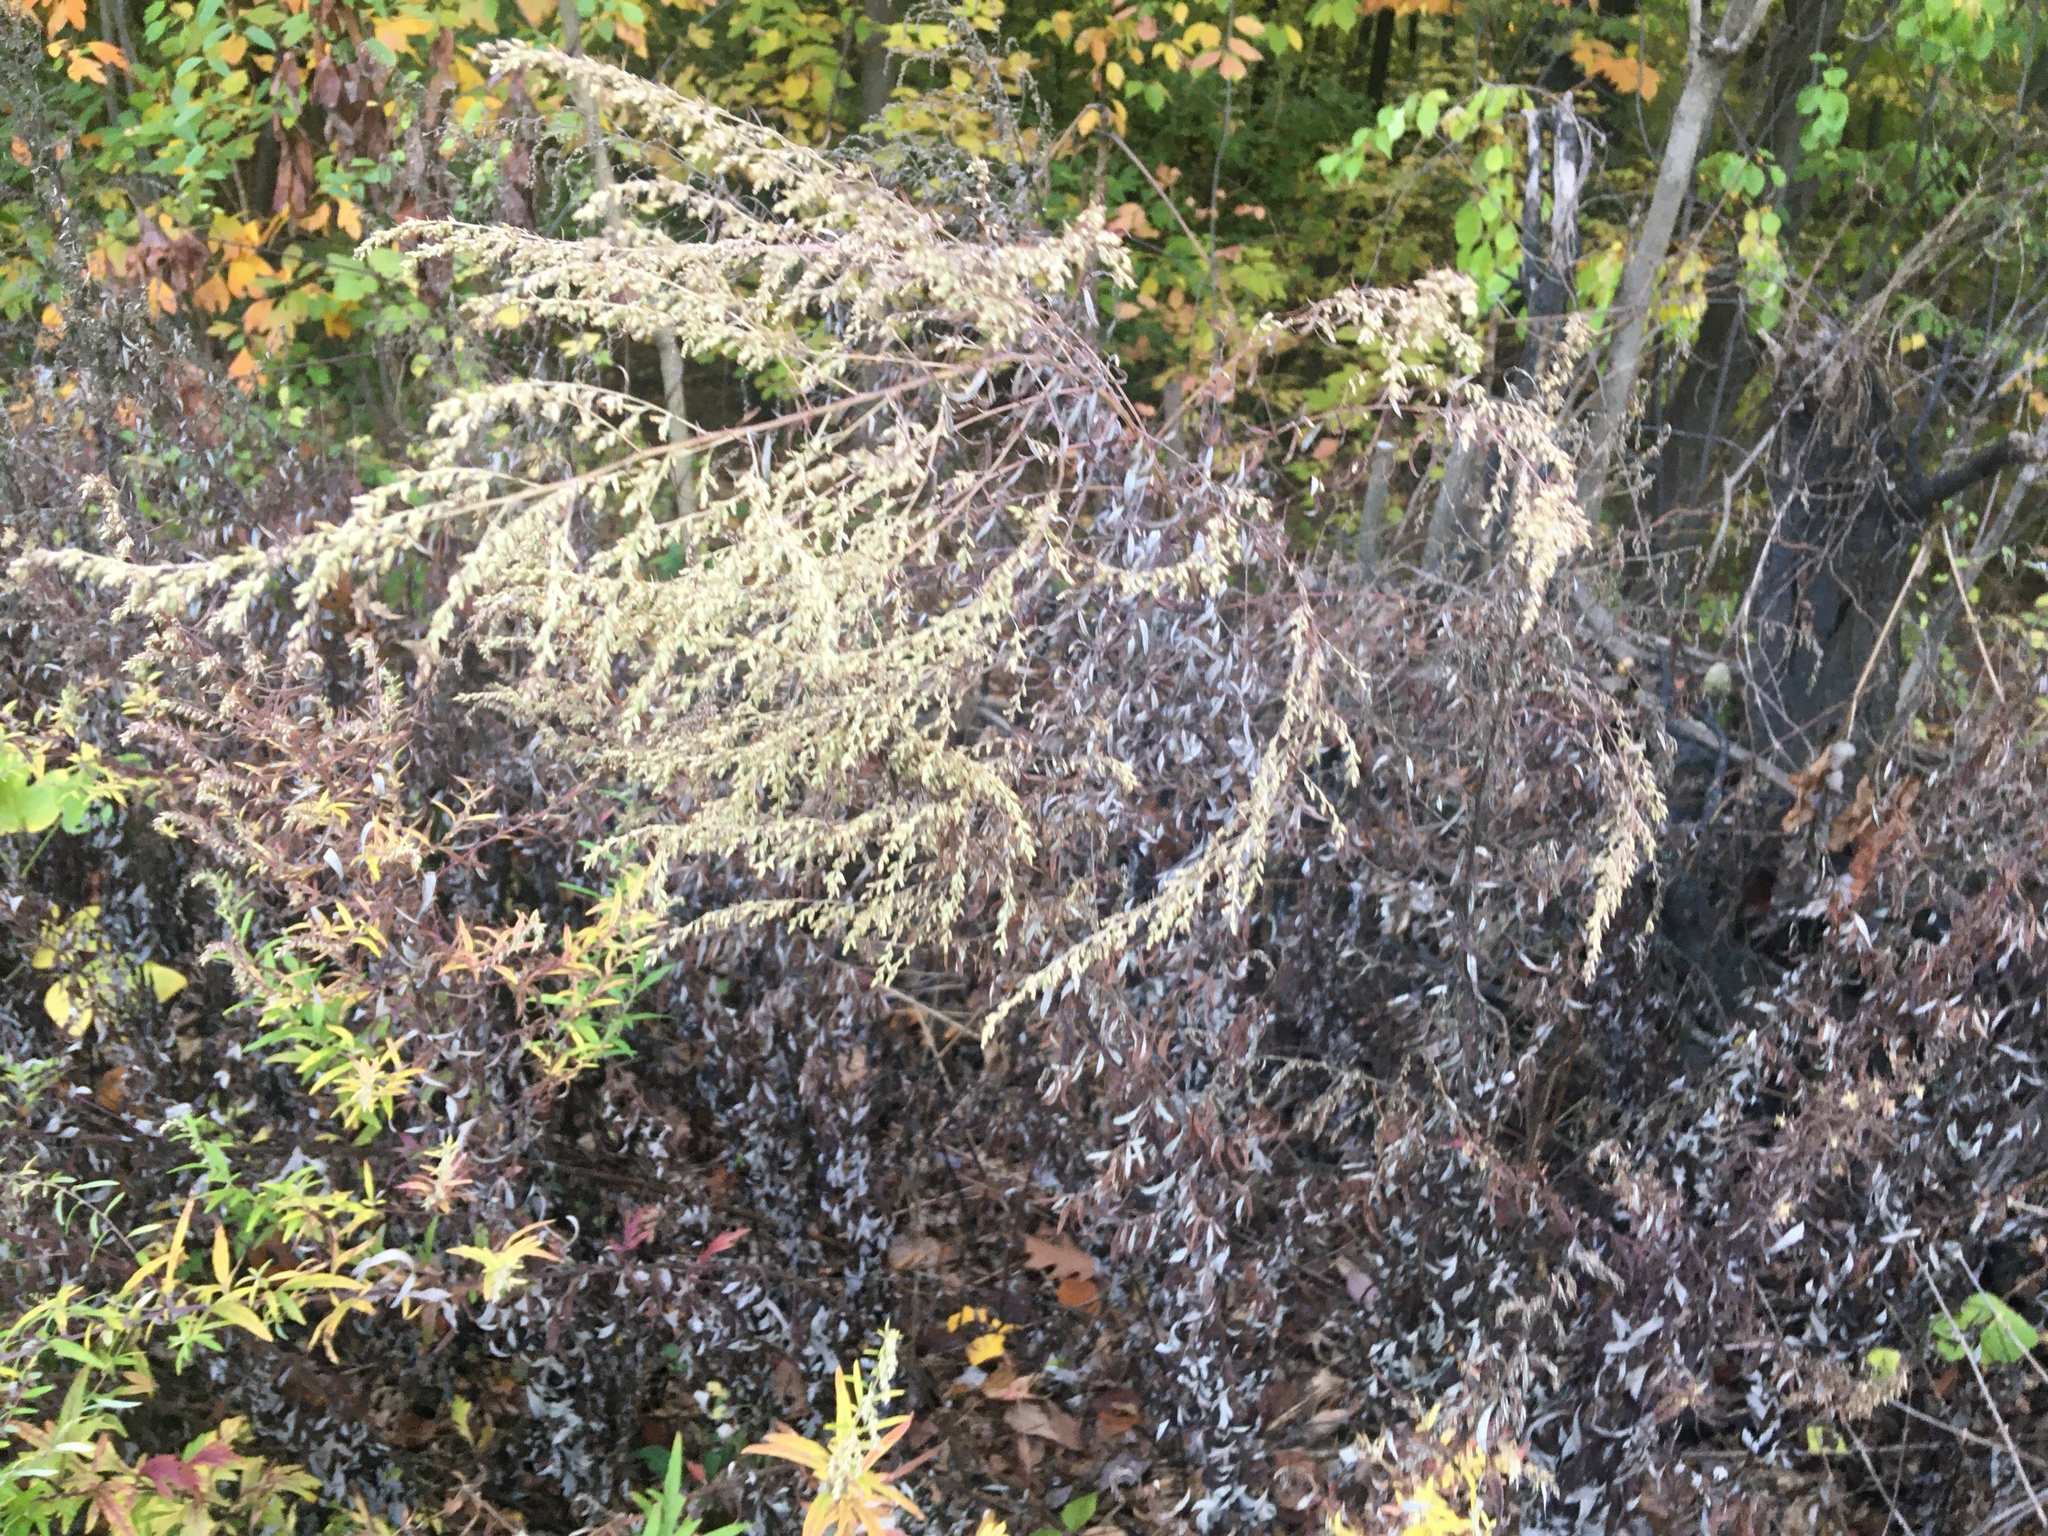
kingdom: Plantae
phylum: Tracheophyta
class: Magnoliopsida
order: Asterales
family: Asteraceae
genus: Artemisia
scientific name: Artemisia vulgaris
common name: Mugwort
